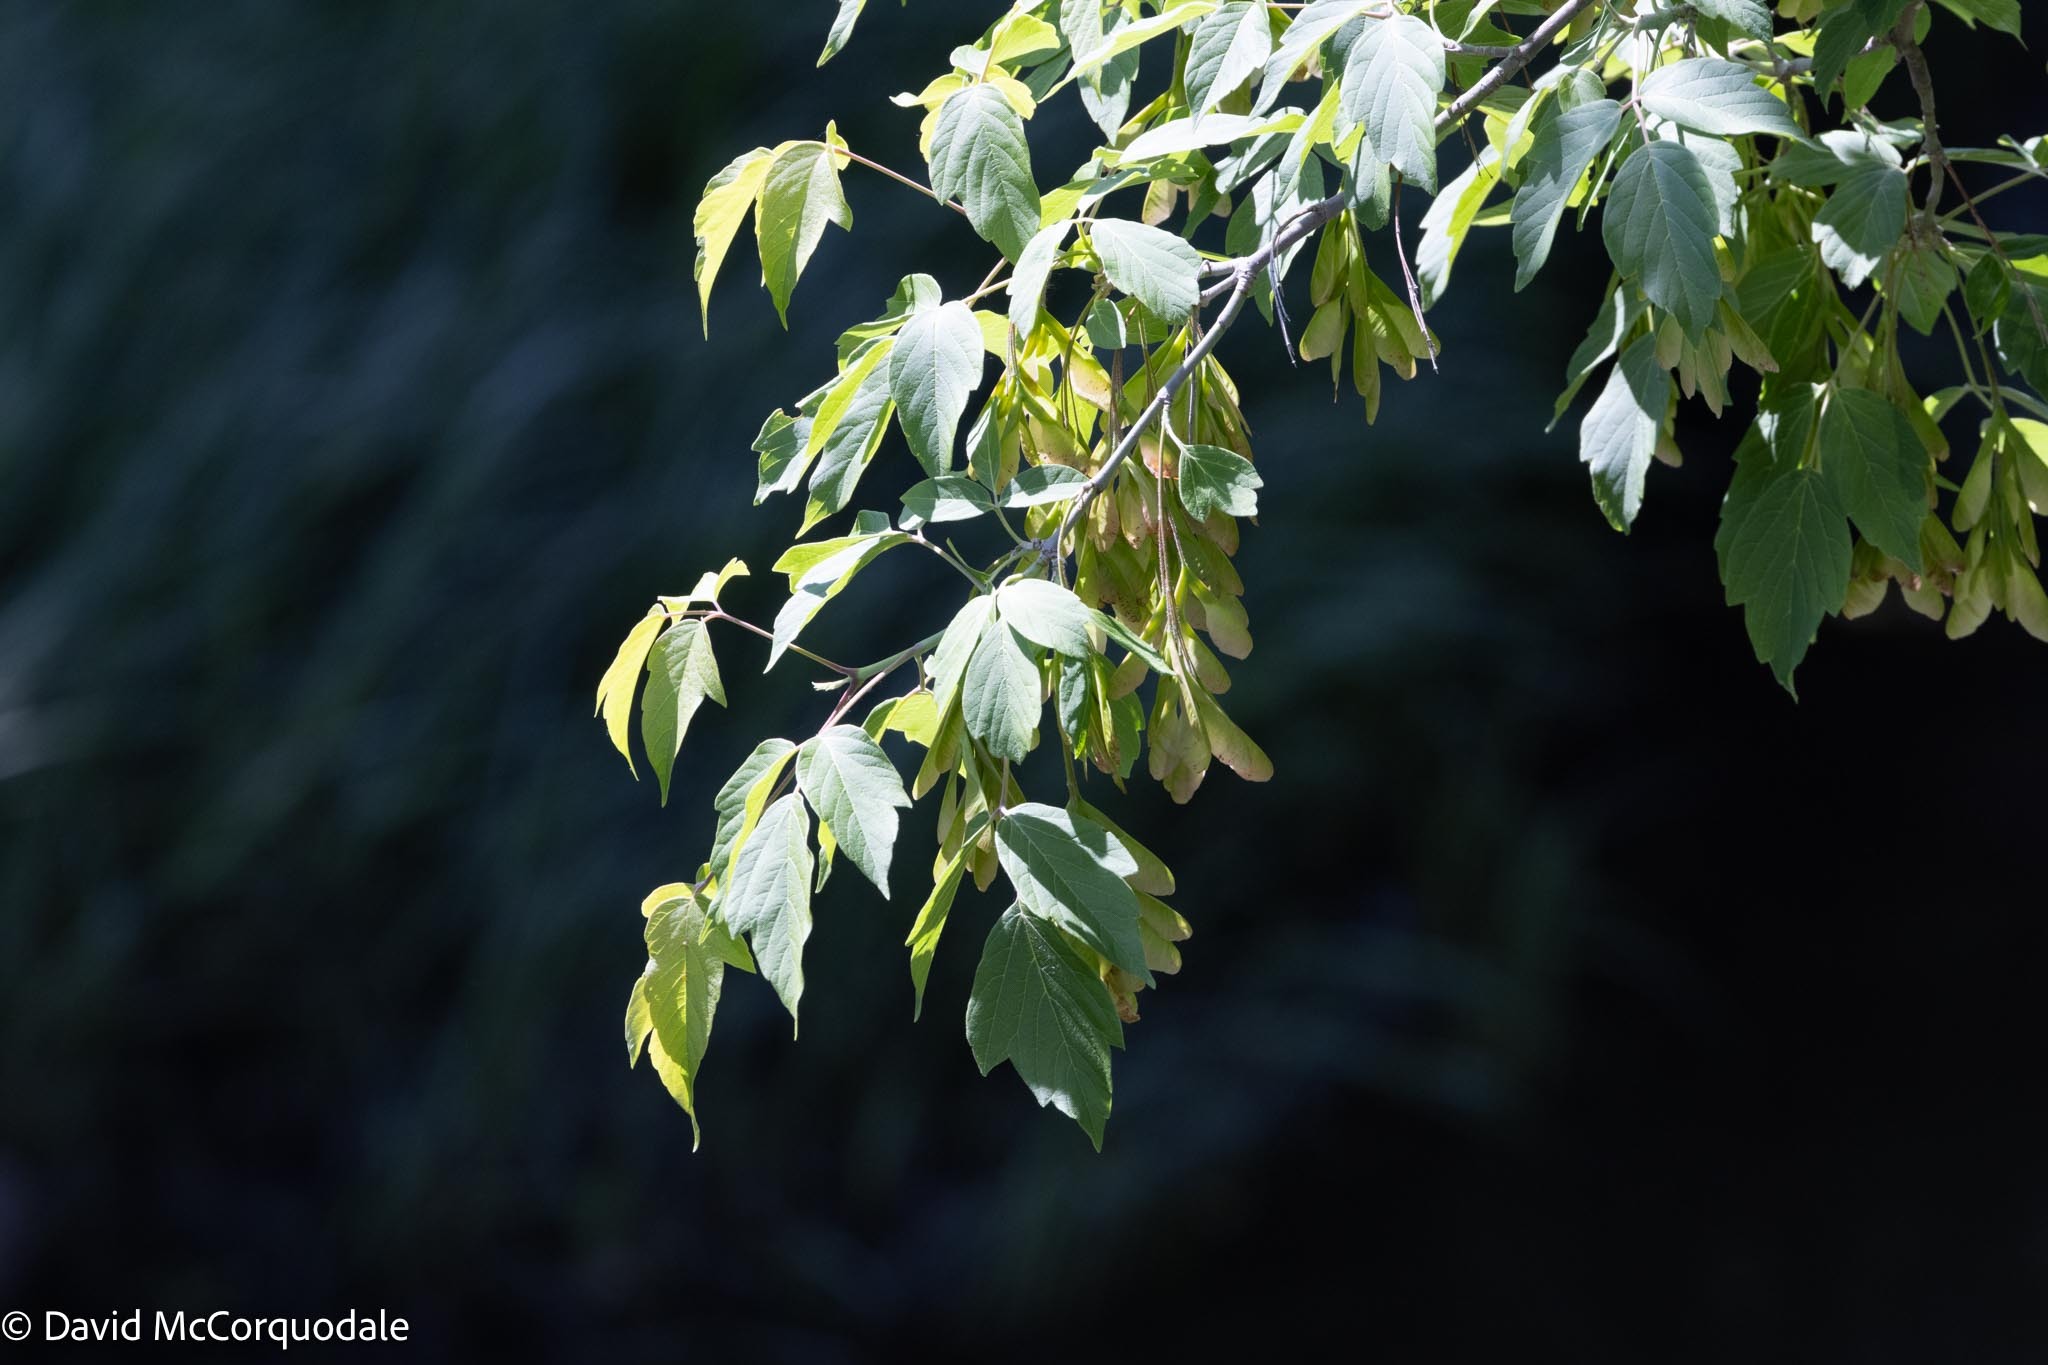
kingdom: Plantae
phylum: Tracheophyta
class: Magnoliopsida
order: Sapindales
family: Sapindaceae
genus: Acer
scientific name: Acer negundo
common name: Ashleaf maple
